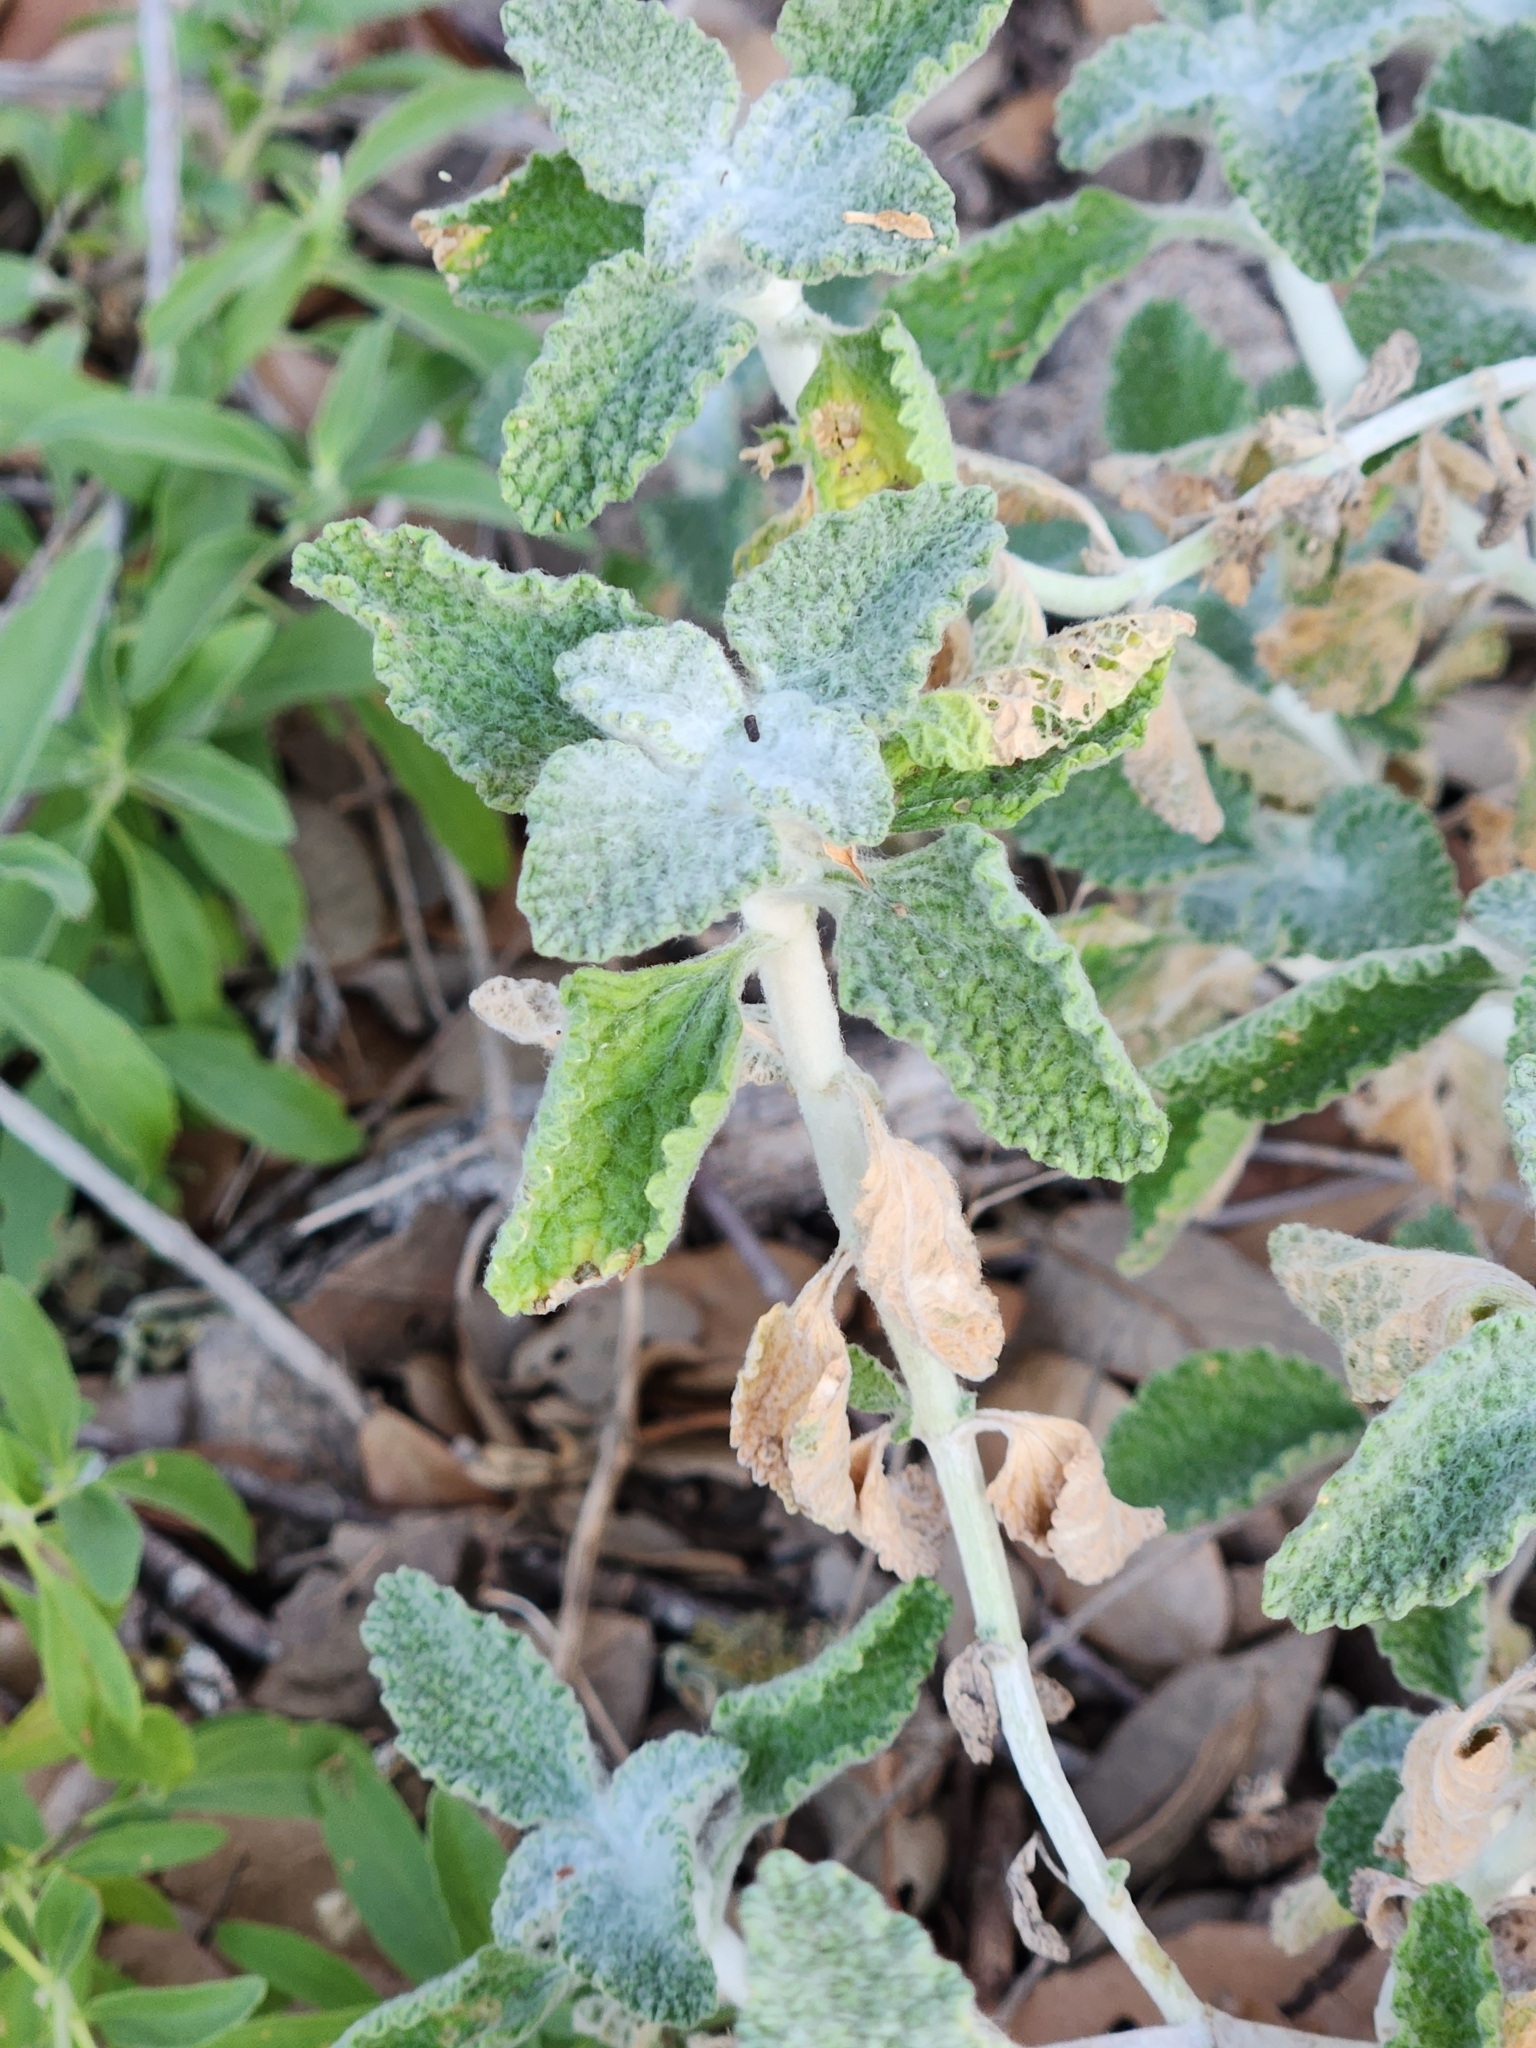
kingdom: Plantae
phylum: Tracheophyta
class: Magnoliopsida
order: Lamiales
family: Lamiaceae
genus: Marrubium
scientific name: Marrubium vulgare
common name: Horehound
